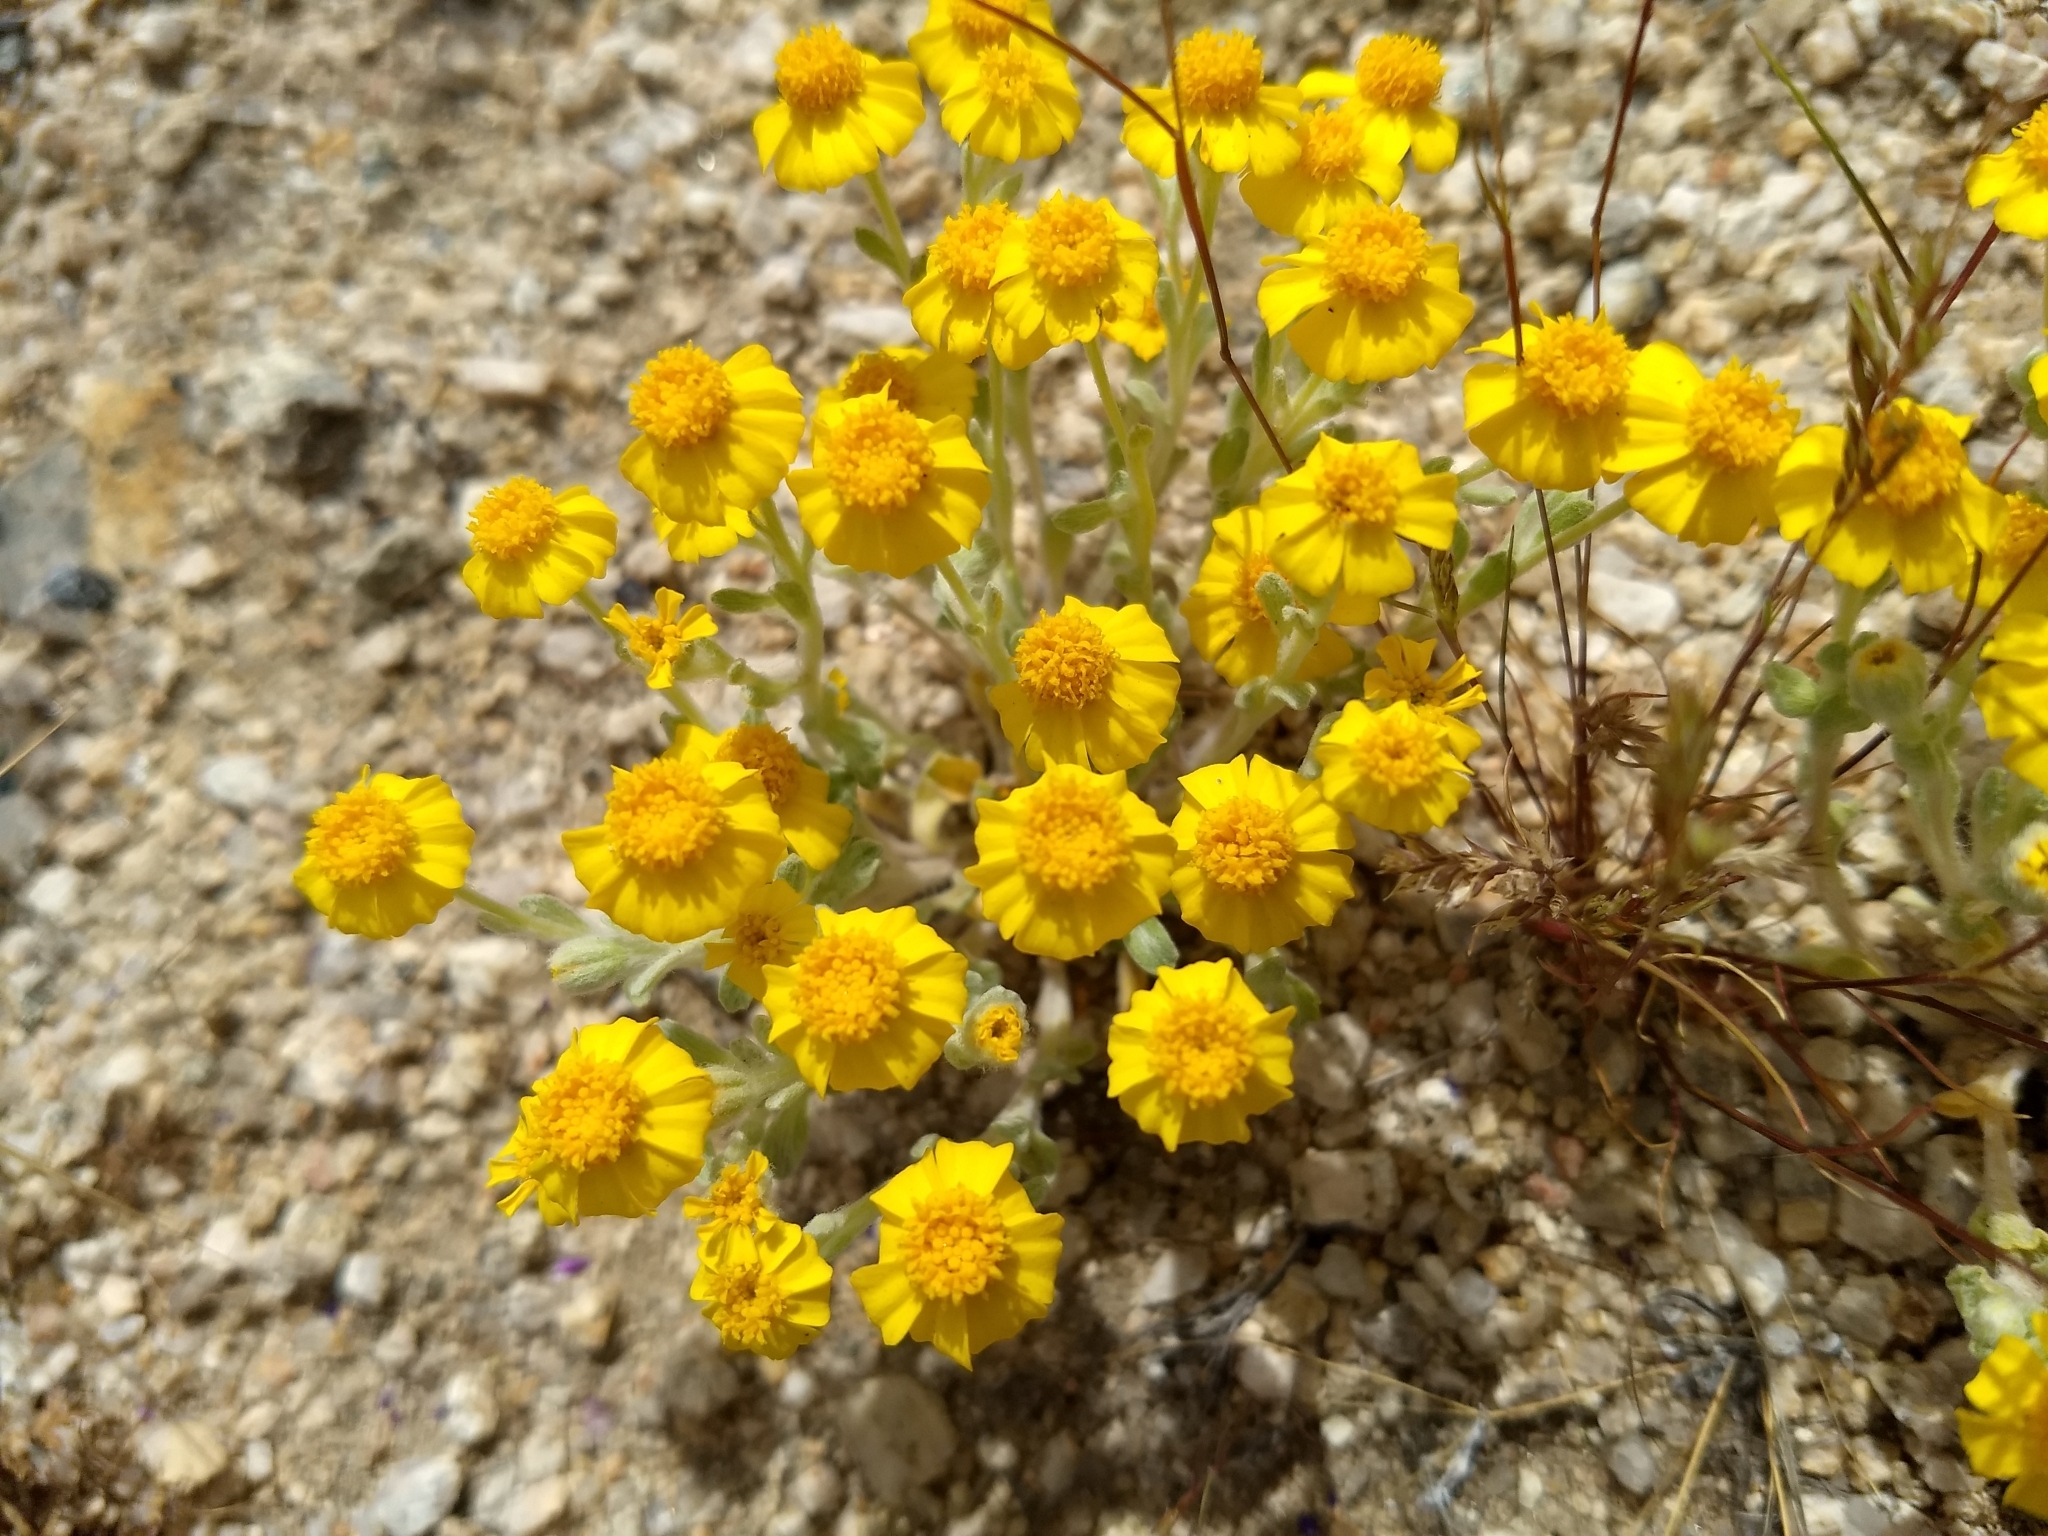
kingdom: Plantae
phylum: Tracheophyta
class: Magnoliopsida
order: Asterales
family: Asteraceae
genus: Eriophyllum
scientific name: Eriophyllum wallacei
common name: Wallace's woolly daisy
